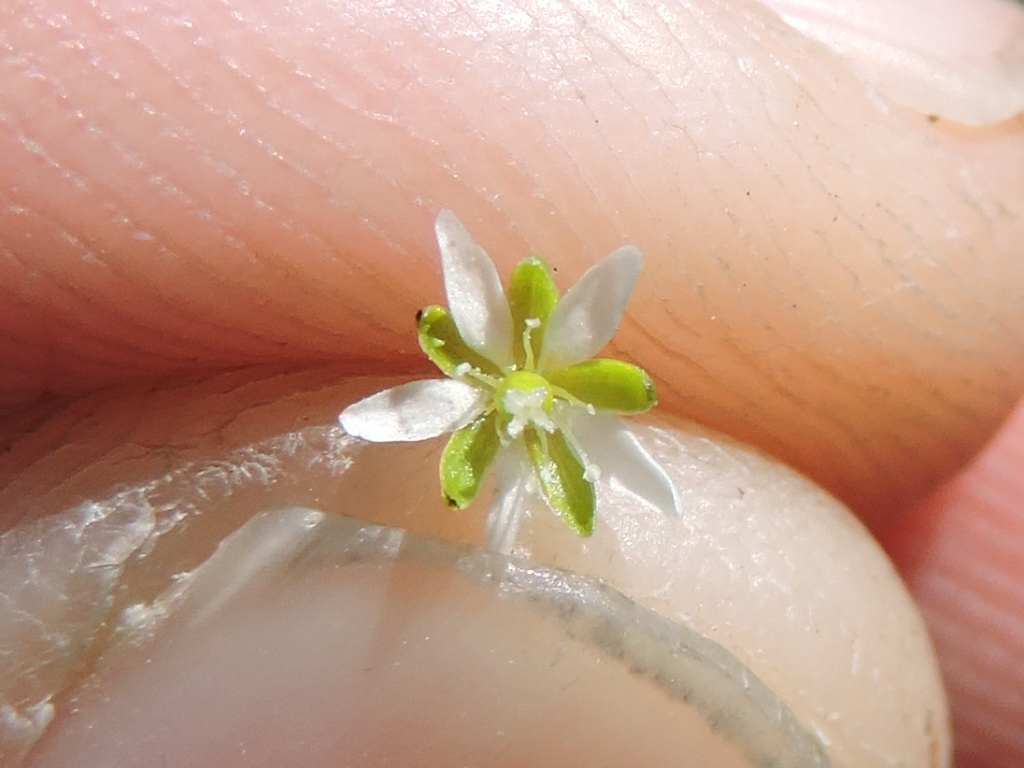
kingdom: Plantae
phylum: Tracheophyta
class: Magnoliopsida
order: Caryophyllales
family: Caryophyllaceae
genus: Sagina
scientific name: Sagina decumbens
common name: Decumbent pearlwort
